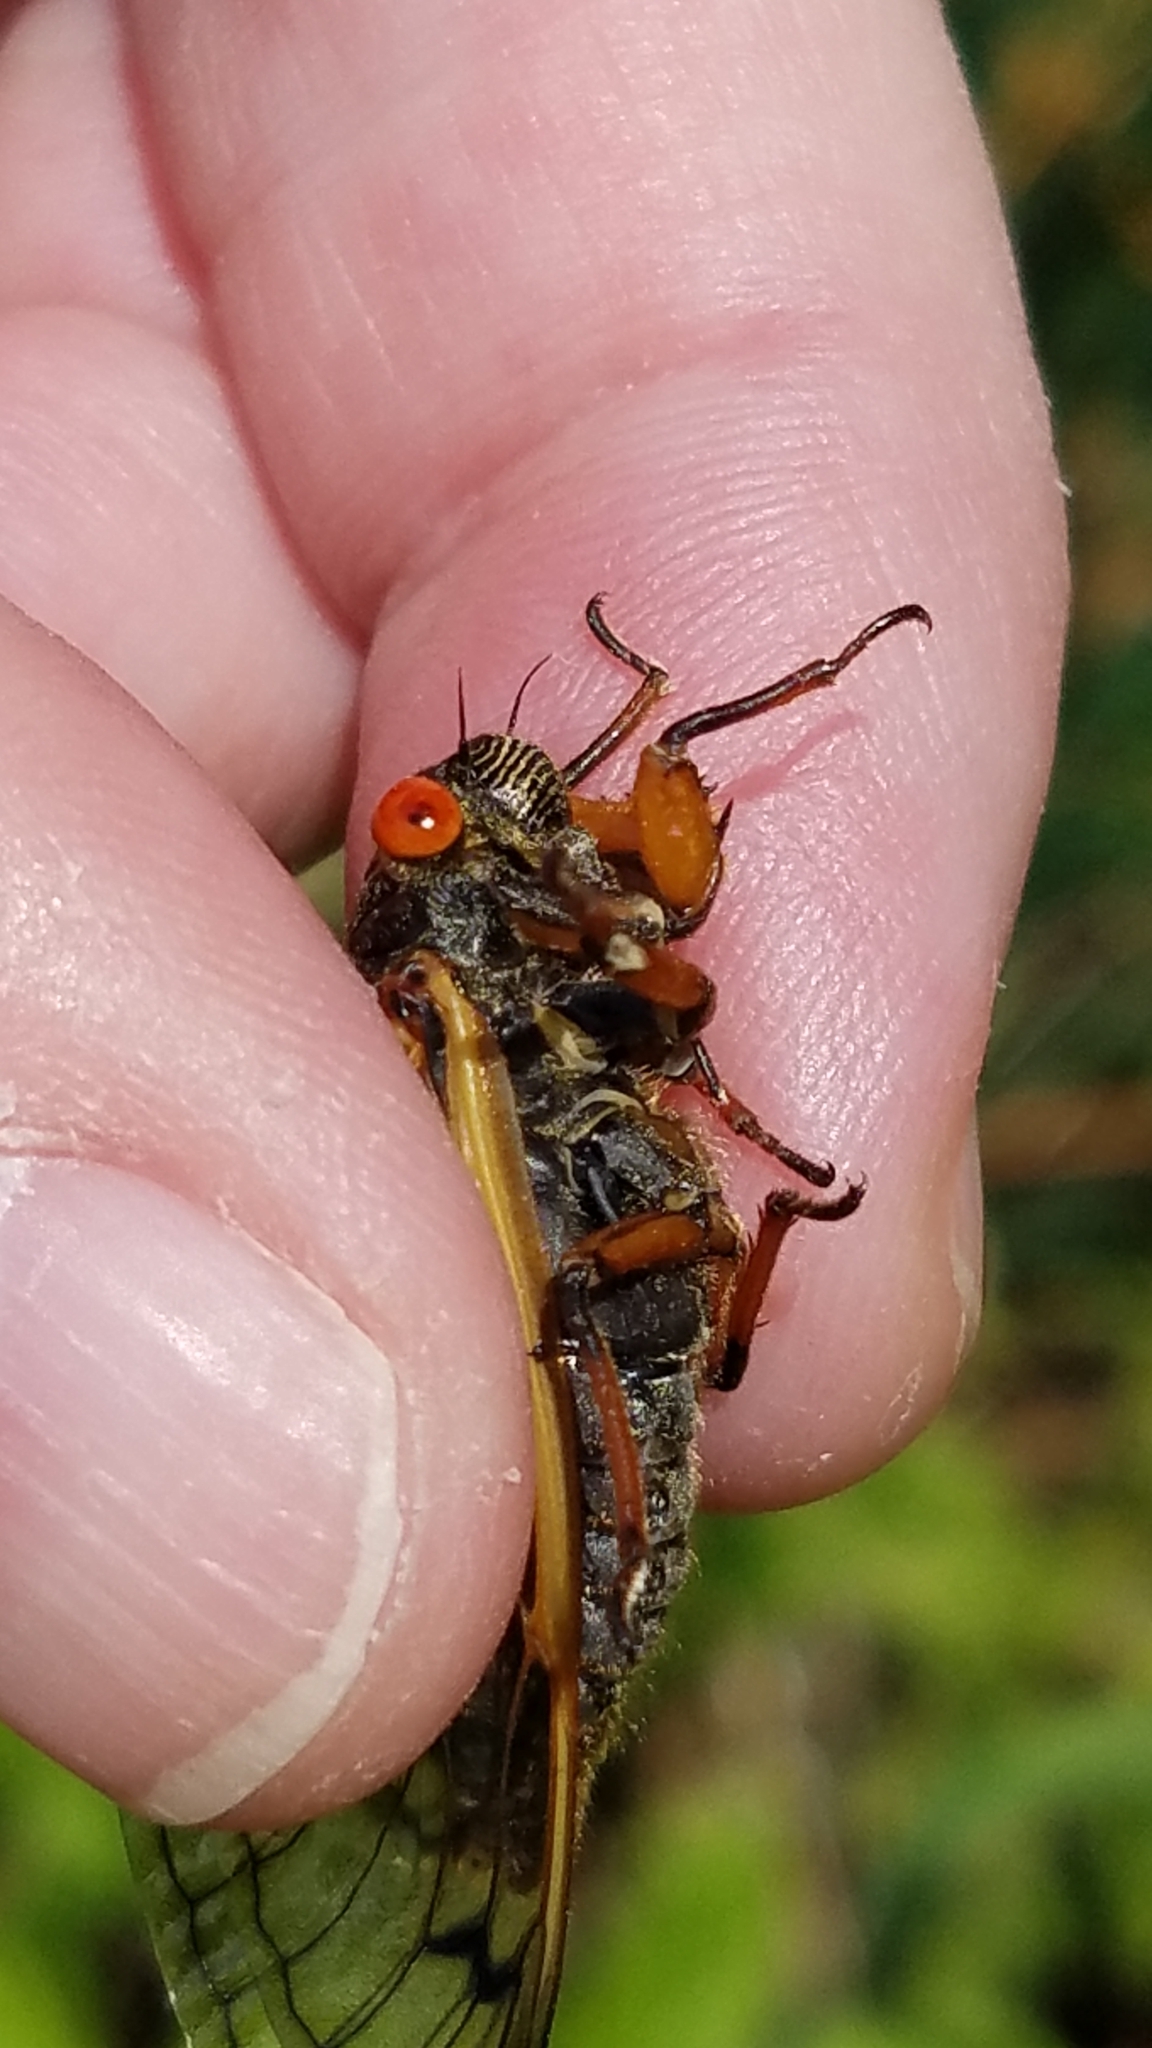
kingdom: Animalia
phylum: Arthropoda
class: Insecta
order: Hemiptera
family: Cicadidae
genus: Magicicada
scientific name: Magicicada cassini
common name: Cassin's 17-year cicada
